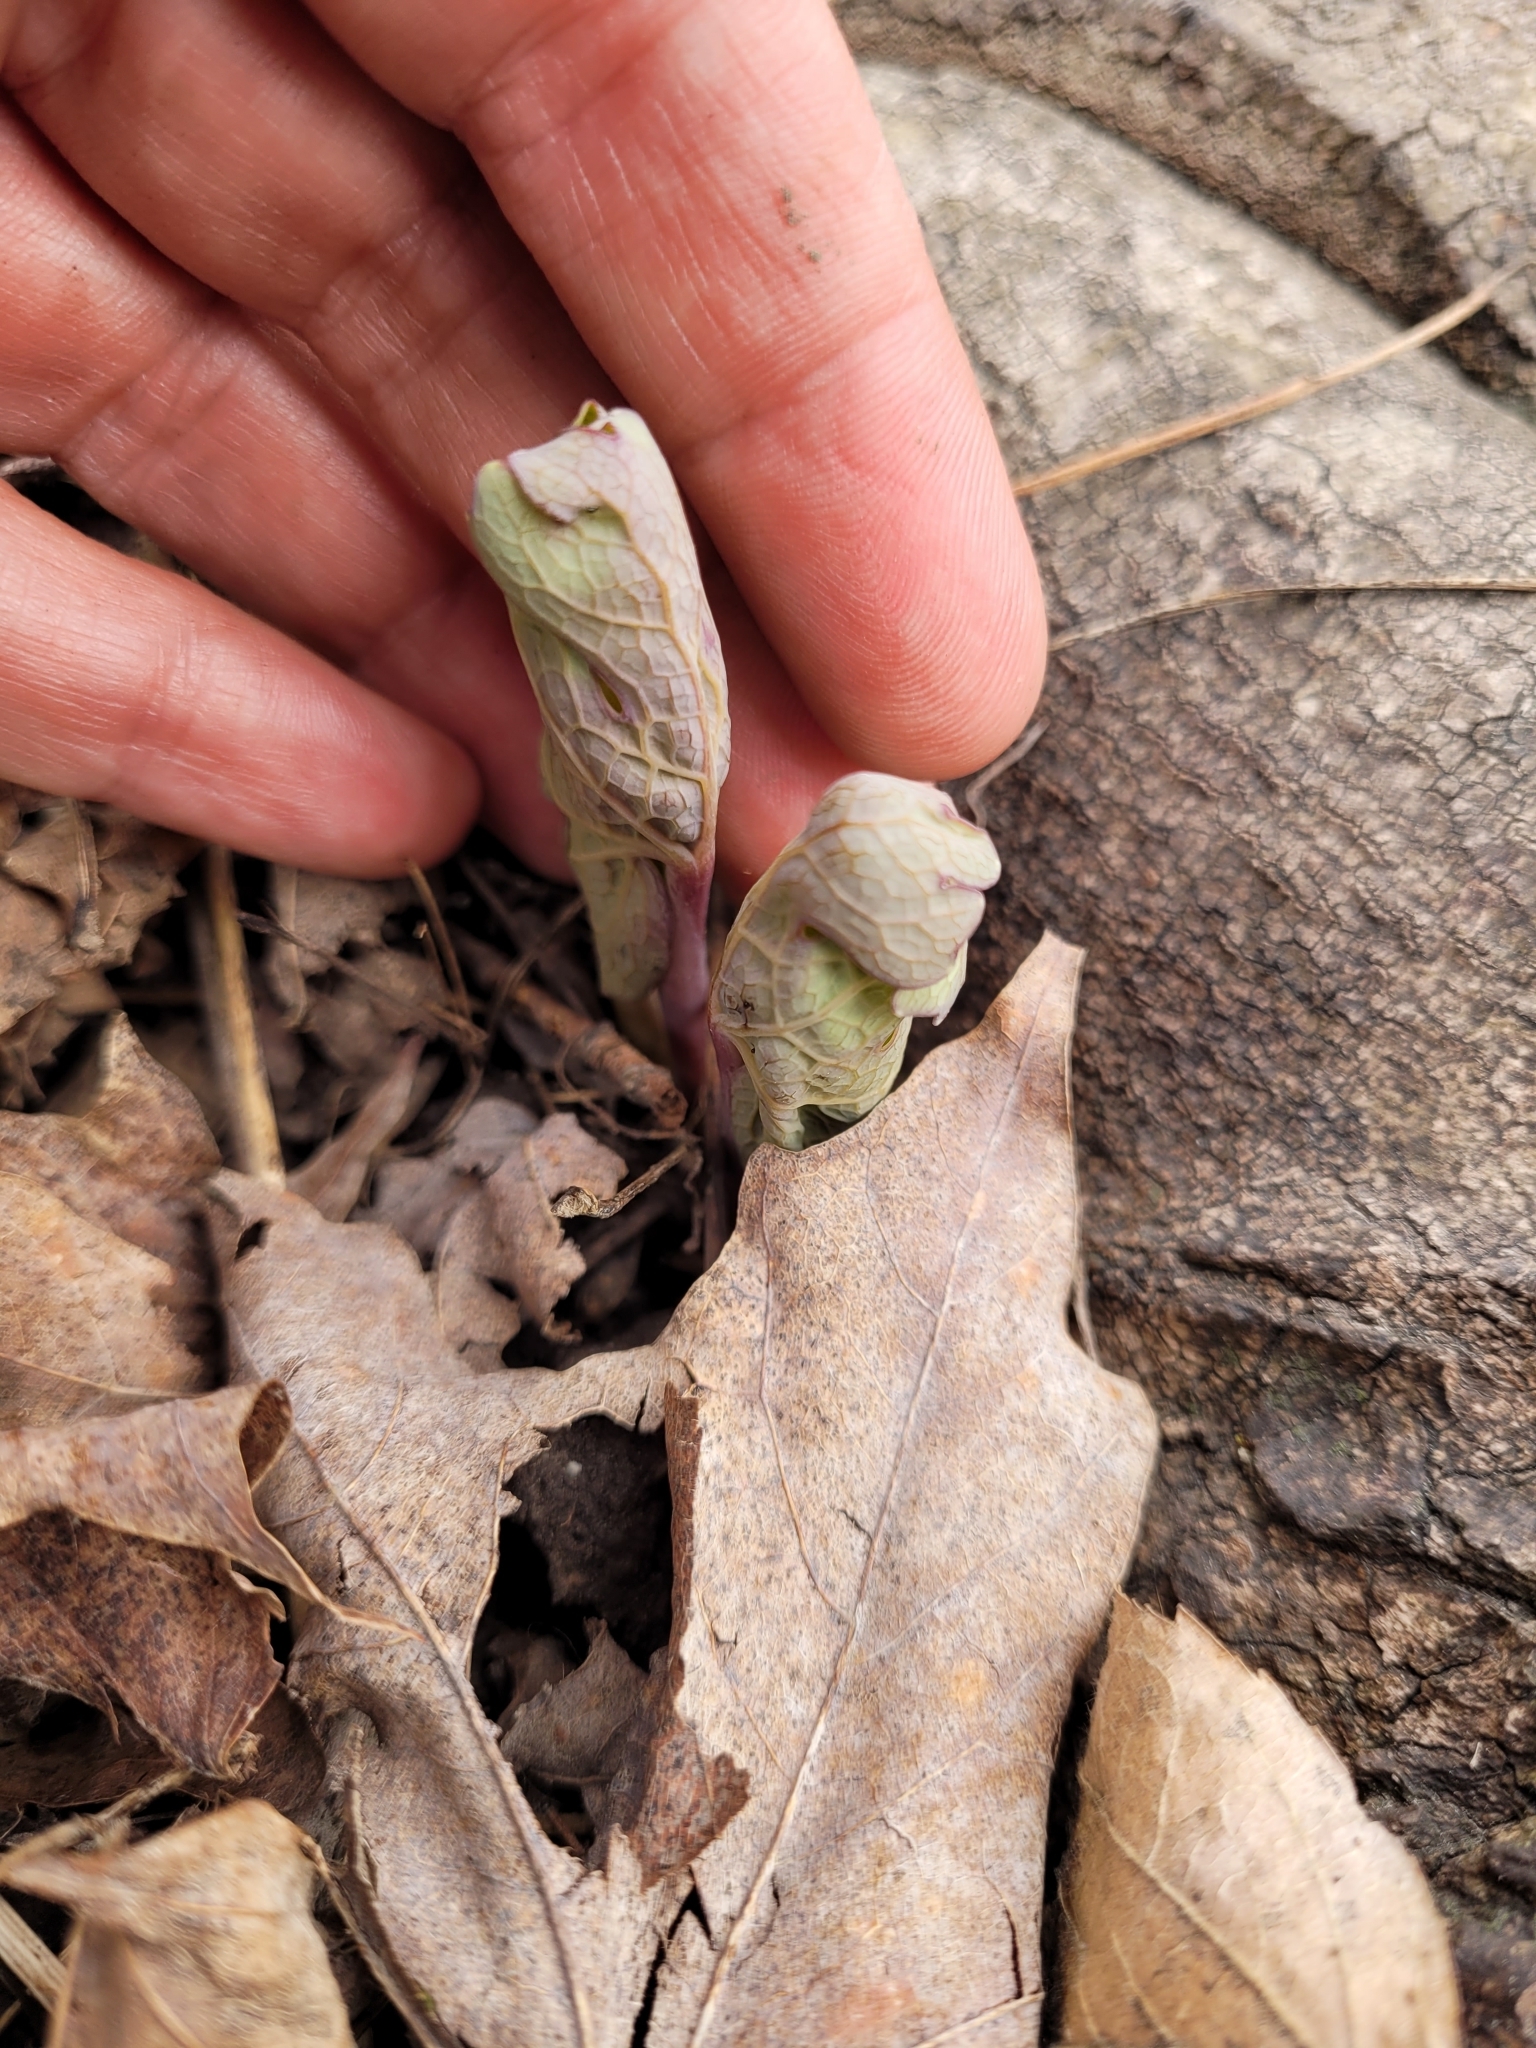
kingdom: Plantae
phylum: Tracheophyta
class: Magnoliopsida
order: Ranunculales
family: Papaveraceae
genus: Sanguinaria
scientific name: Sanguinaria canadensis
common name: Bloodroot
